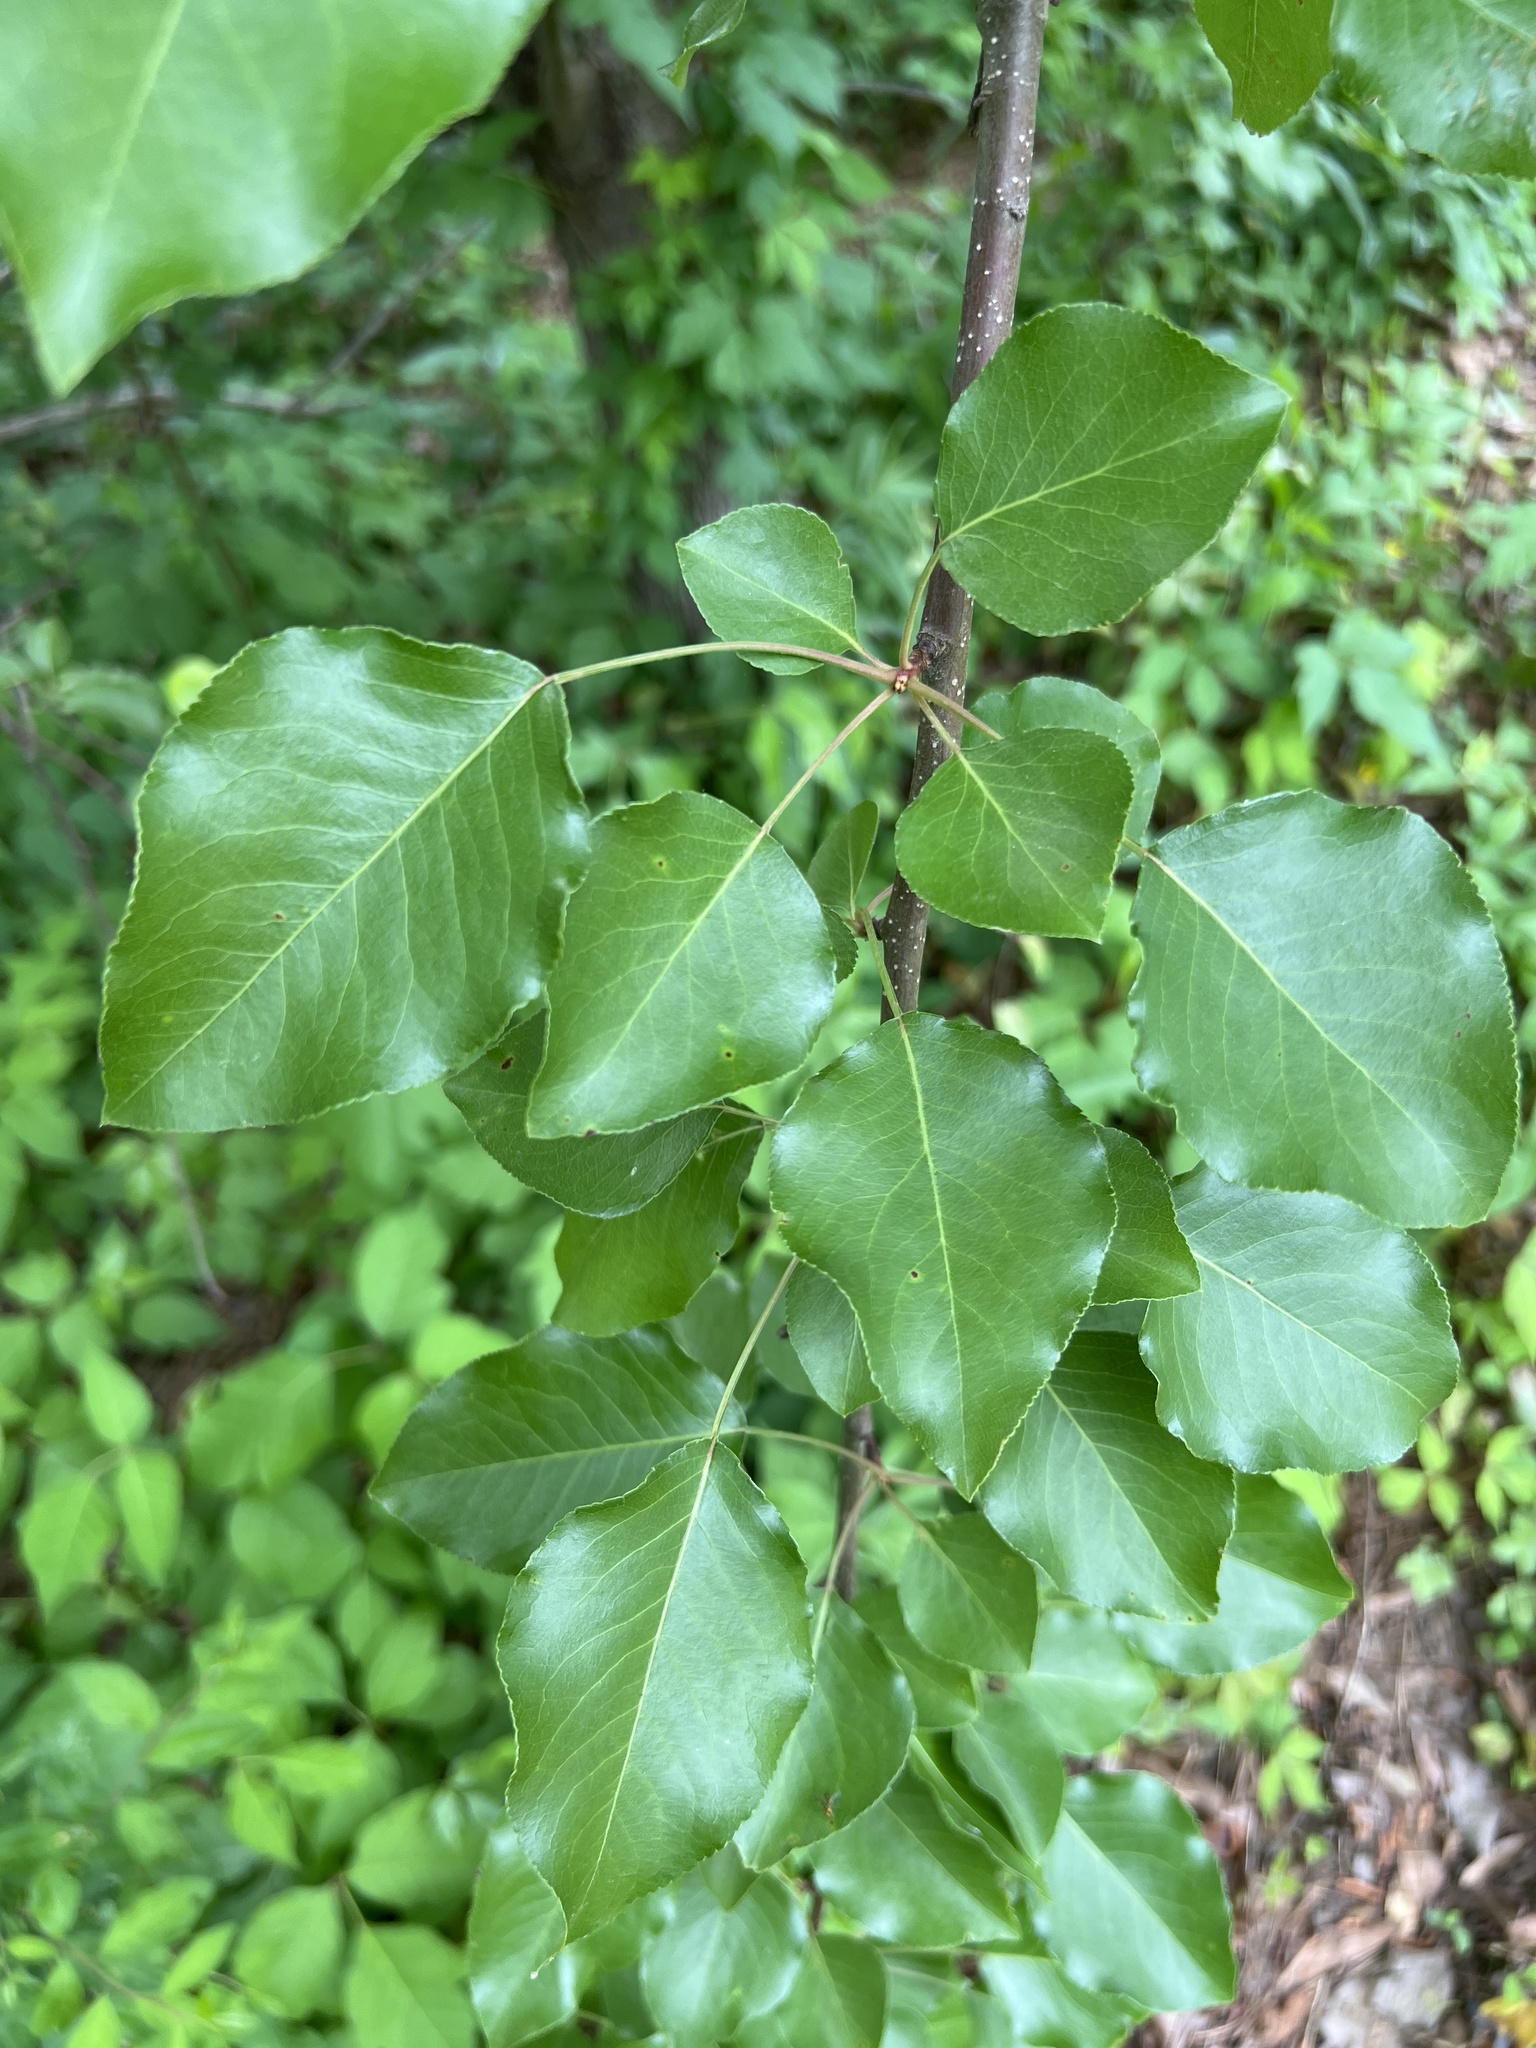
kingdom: Plantae
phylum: Tracheophyta
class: Magnoliopsida
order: Rosales
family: Rosaceae
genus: Pyrus
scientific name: Pyrus calleryana
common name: Callery pear
